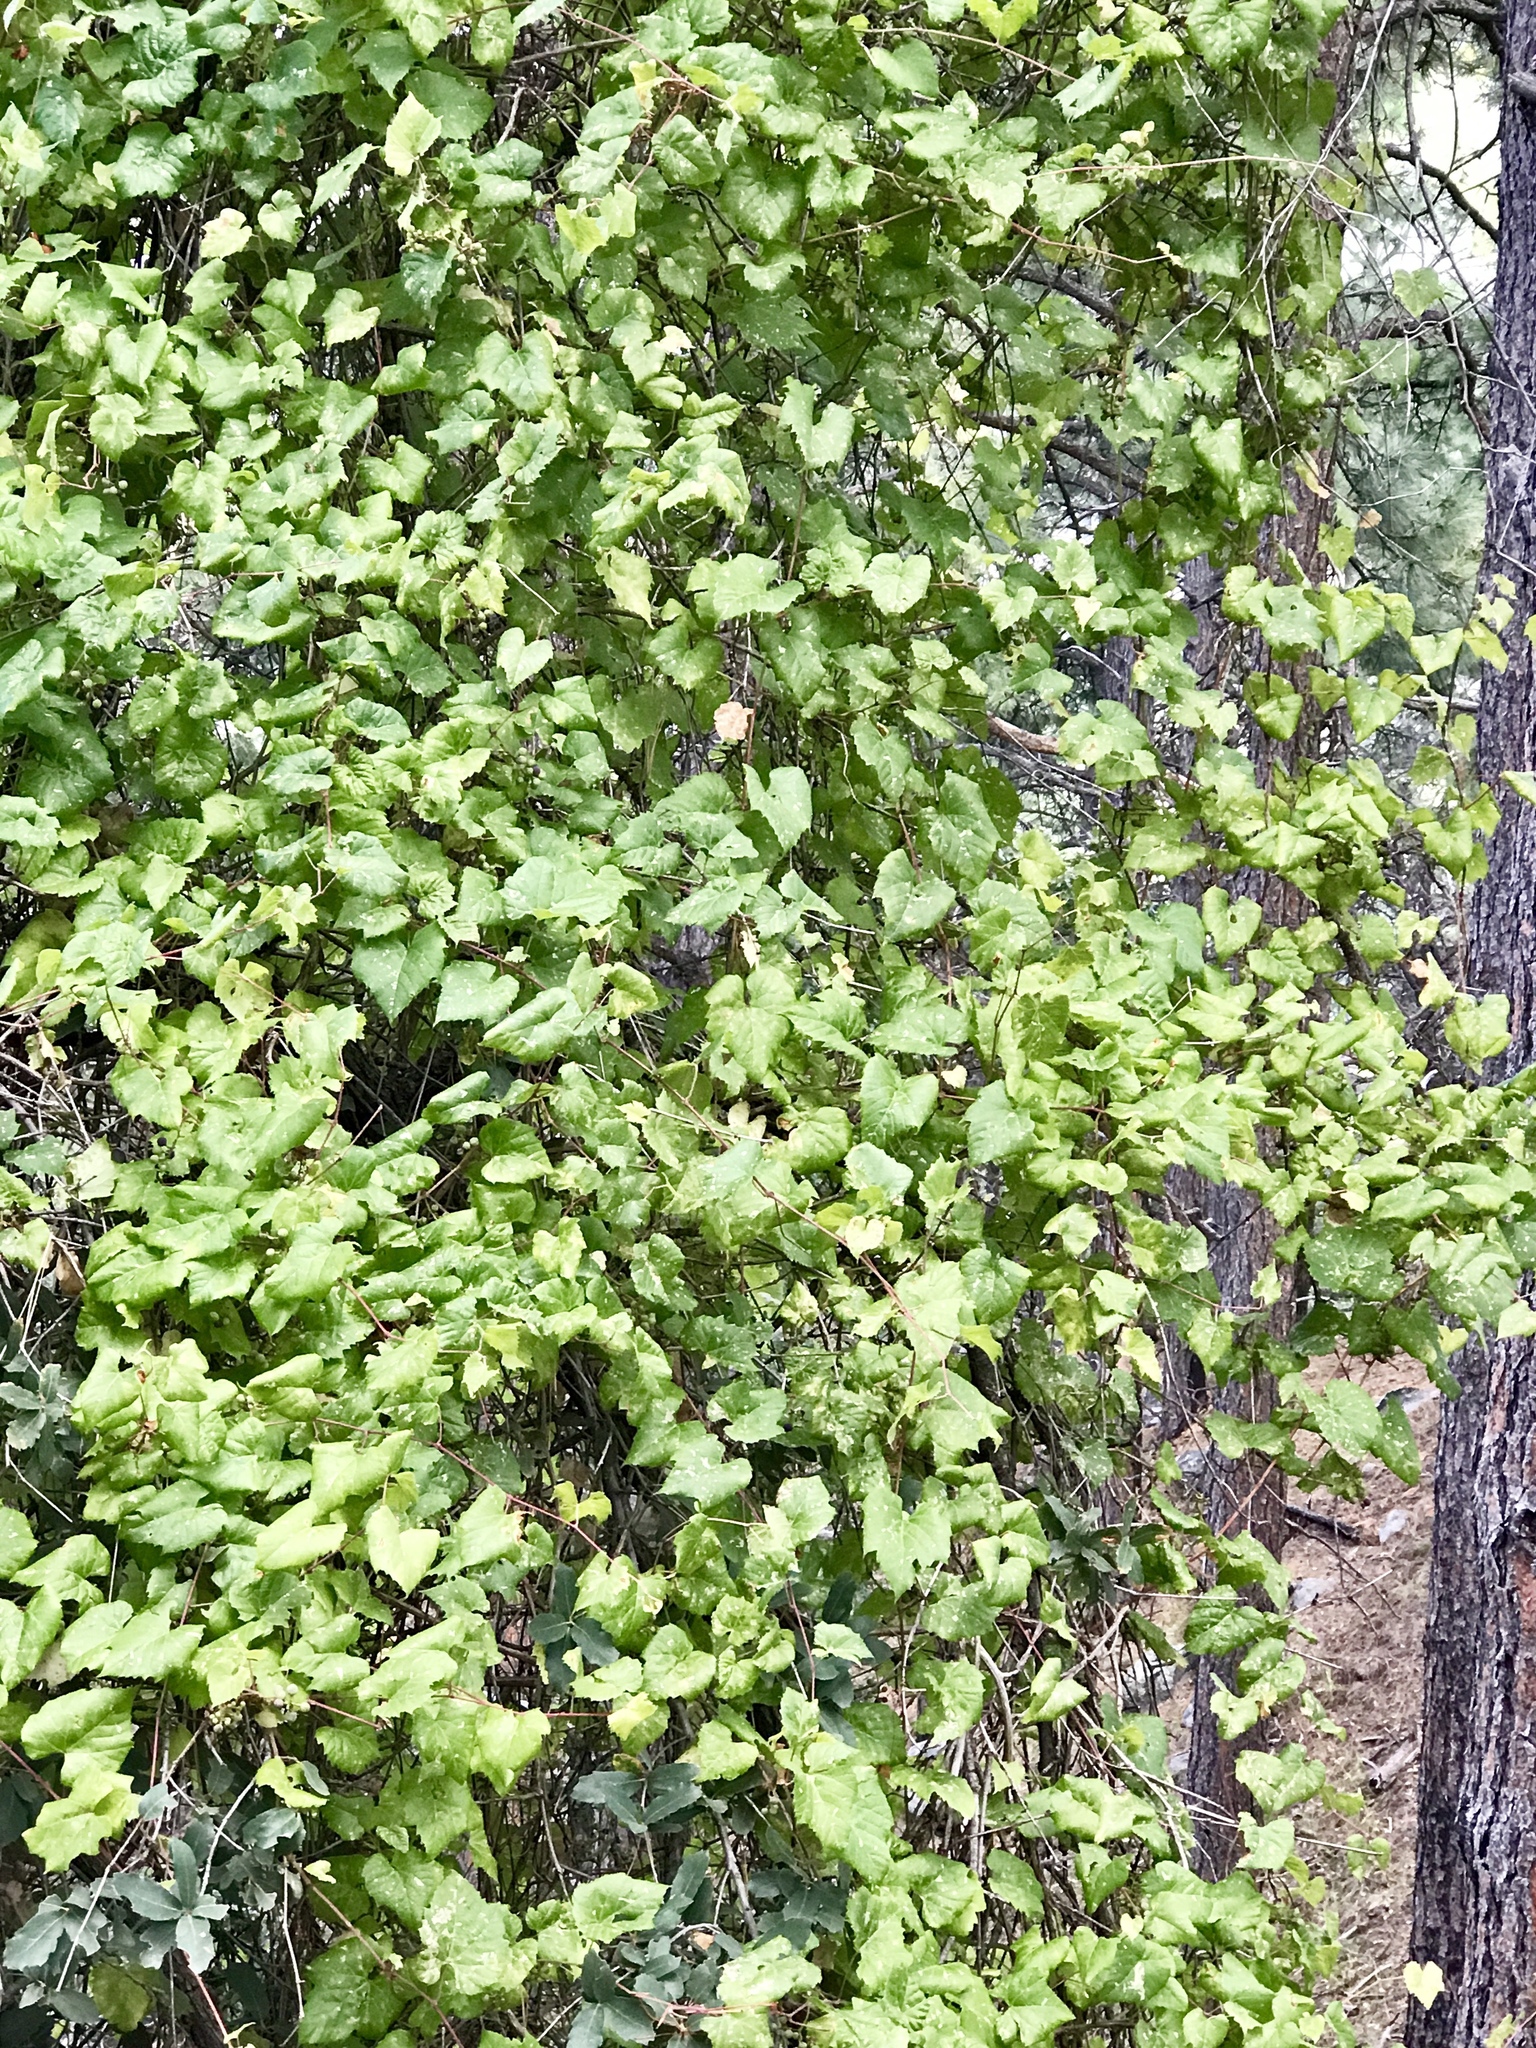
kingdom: Plantae
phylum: Tracheophyta
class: Magnoliopsida
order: Vitales
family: Vitaceae
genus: Vitis
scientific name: Vitis arizonica
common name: Canyon grape
